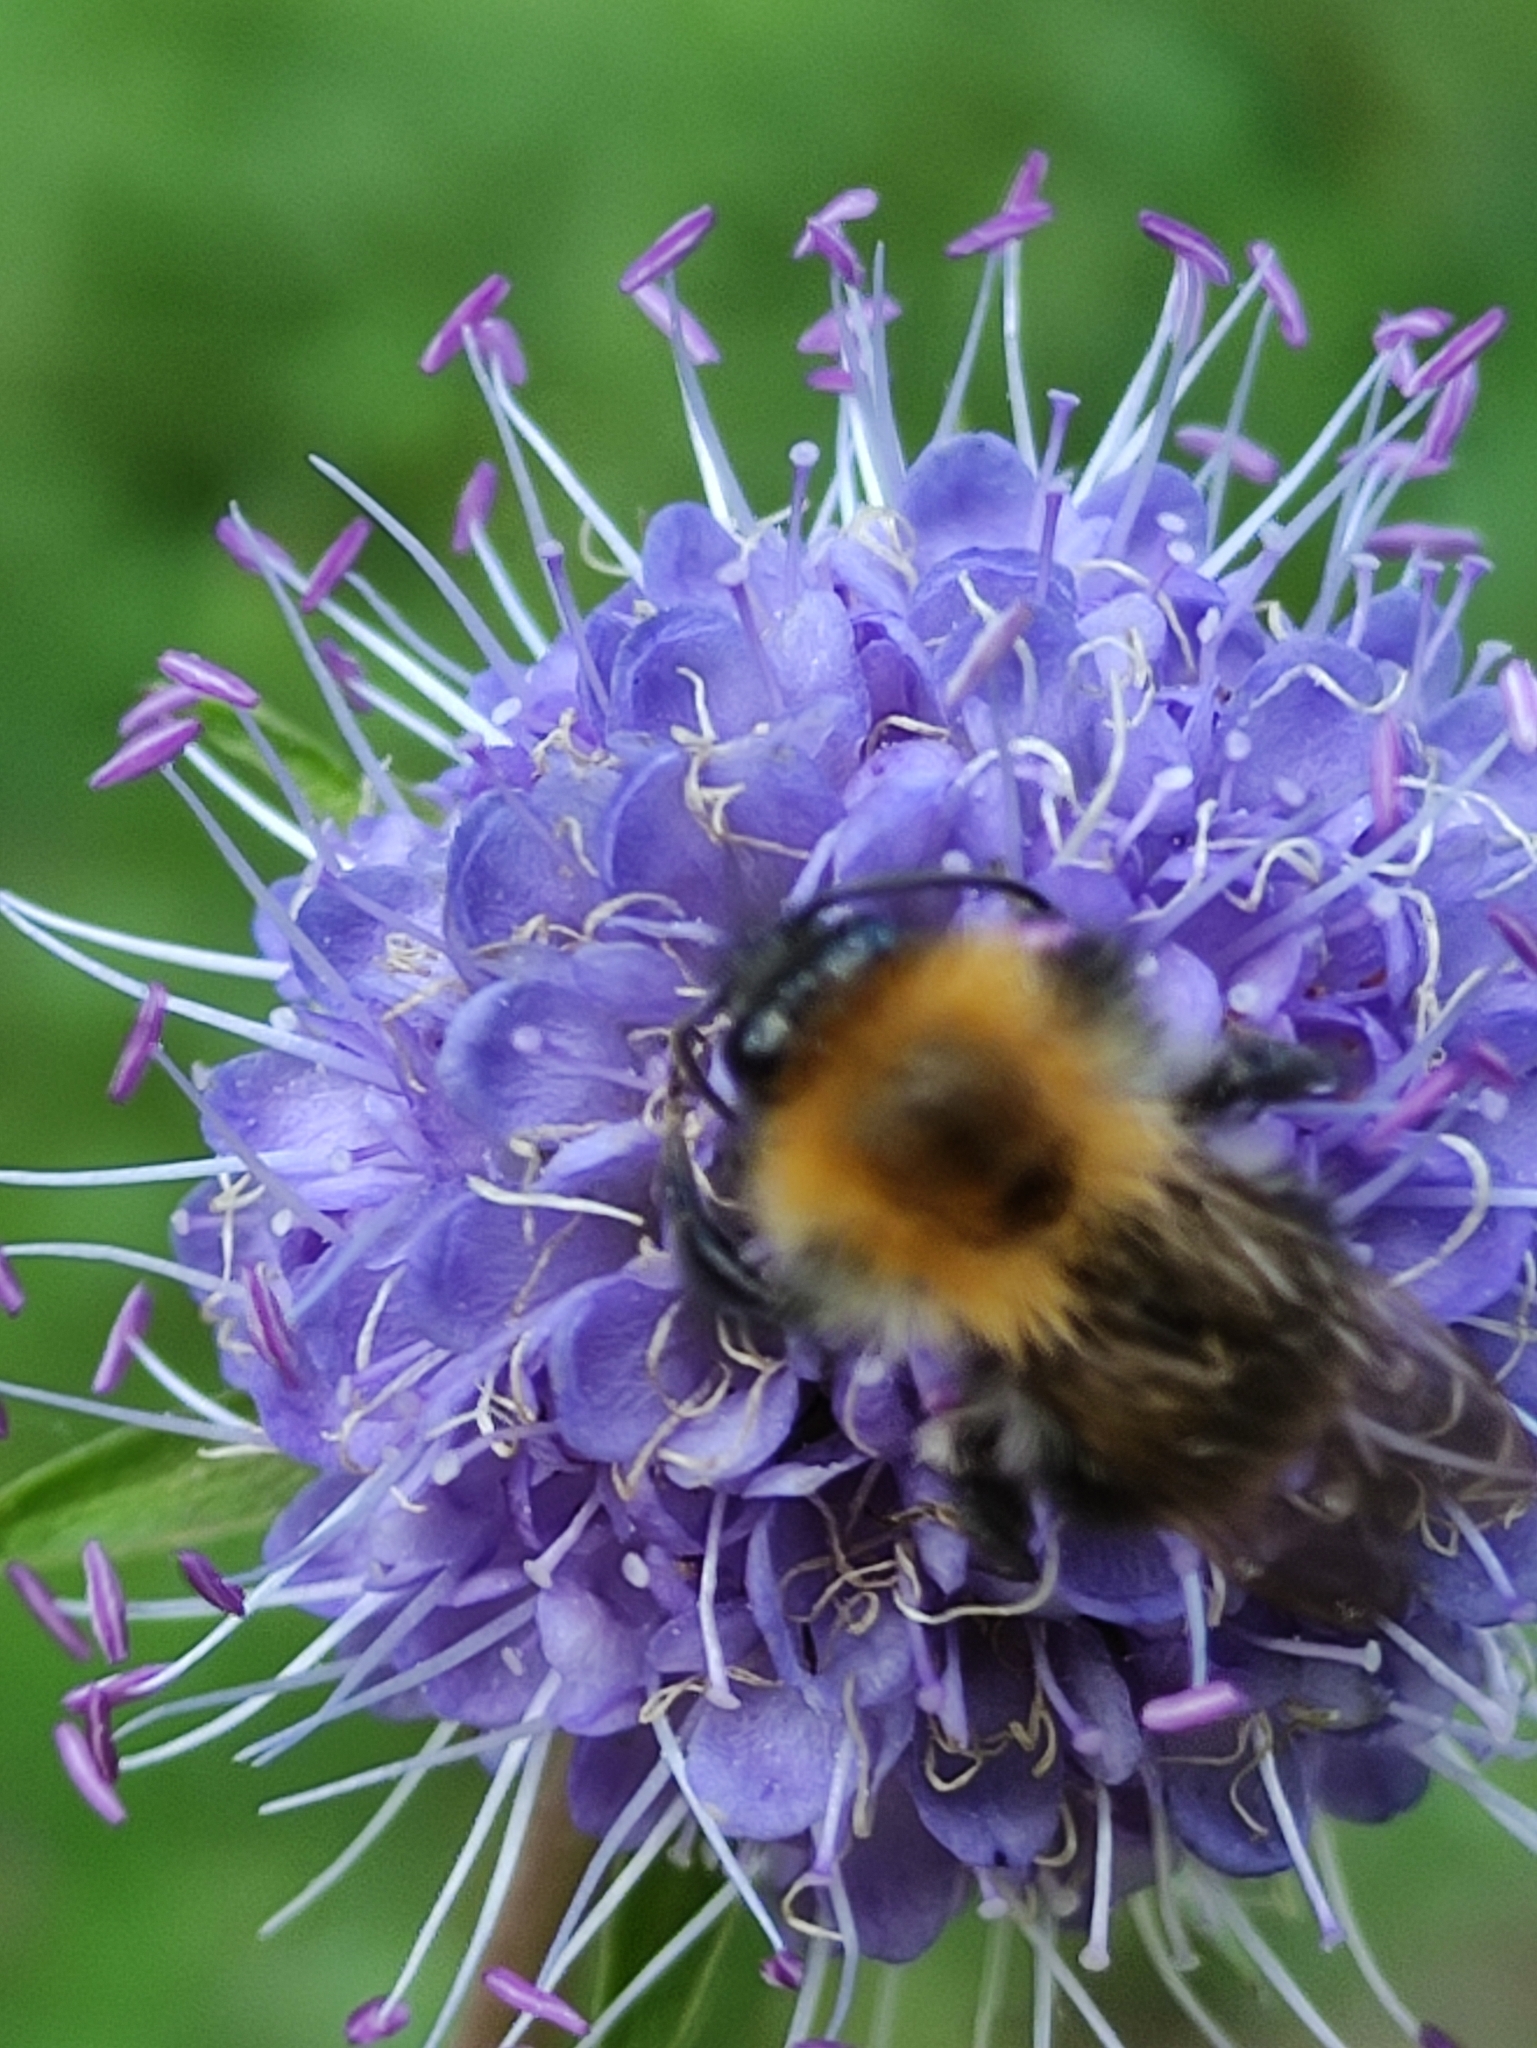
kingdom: Animalia
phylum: Arthropoda
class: Insecta
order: Hymenoptera
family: Apidae
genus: Bombus
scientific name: Bombus pascuorum
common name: Common carder bee
